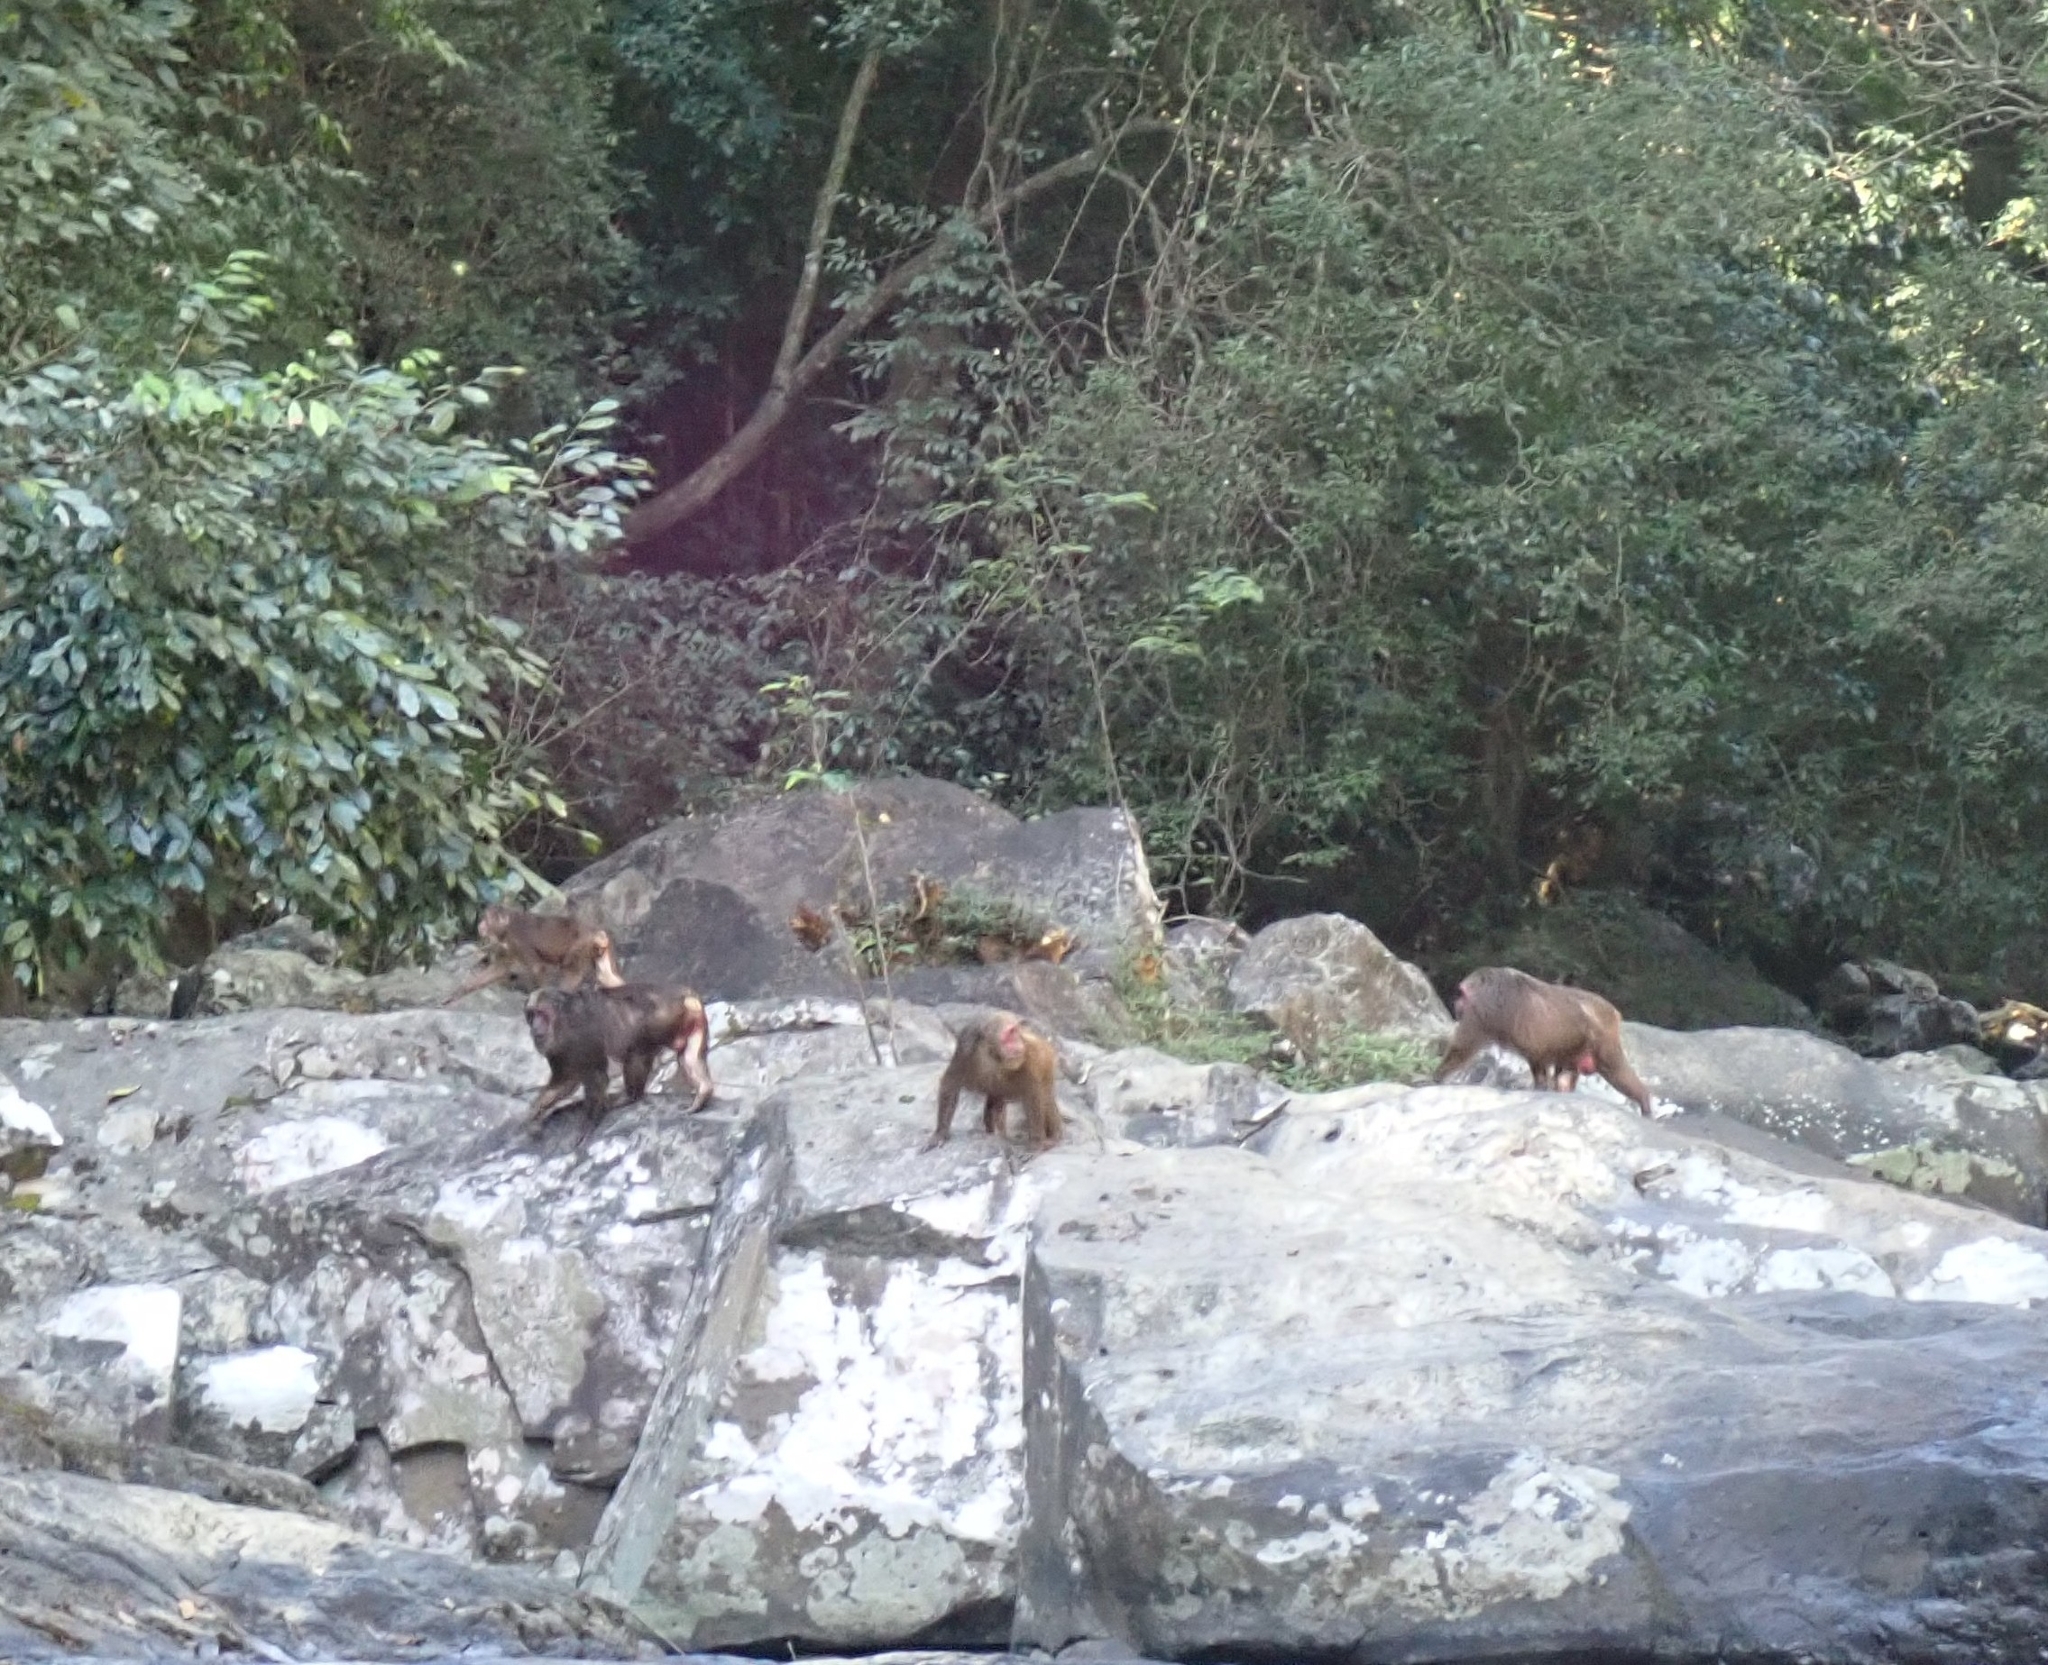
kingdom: Animalia
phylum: Chordata
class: Mammalia
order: Primates
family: Cercopithecidae
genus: Macaca
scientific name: Macaca arctoides
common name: Stump-tailed macaque
